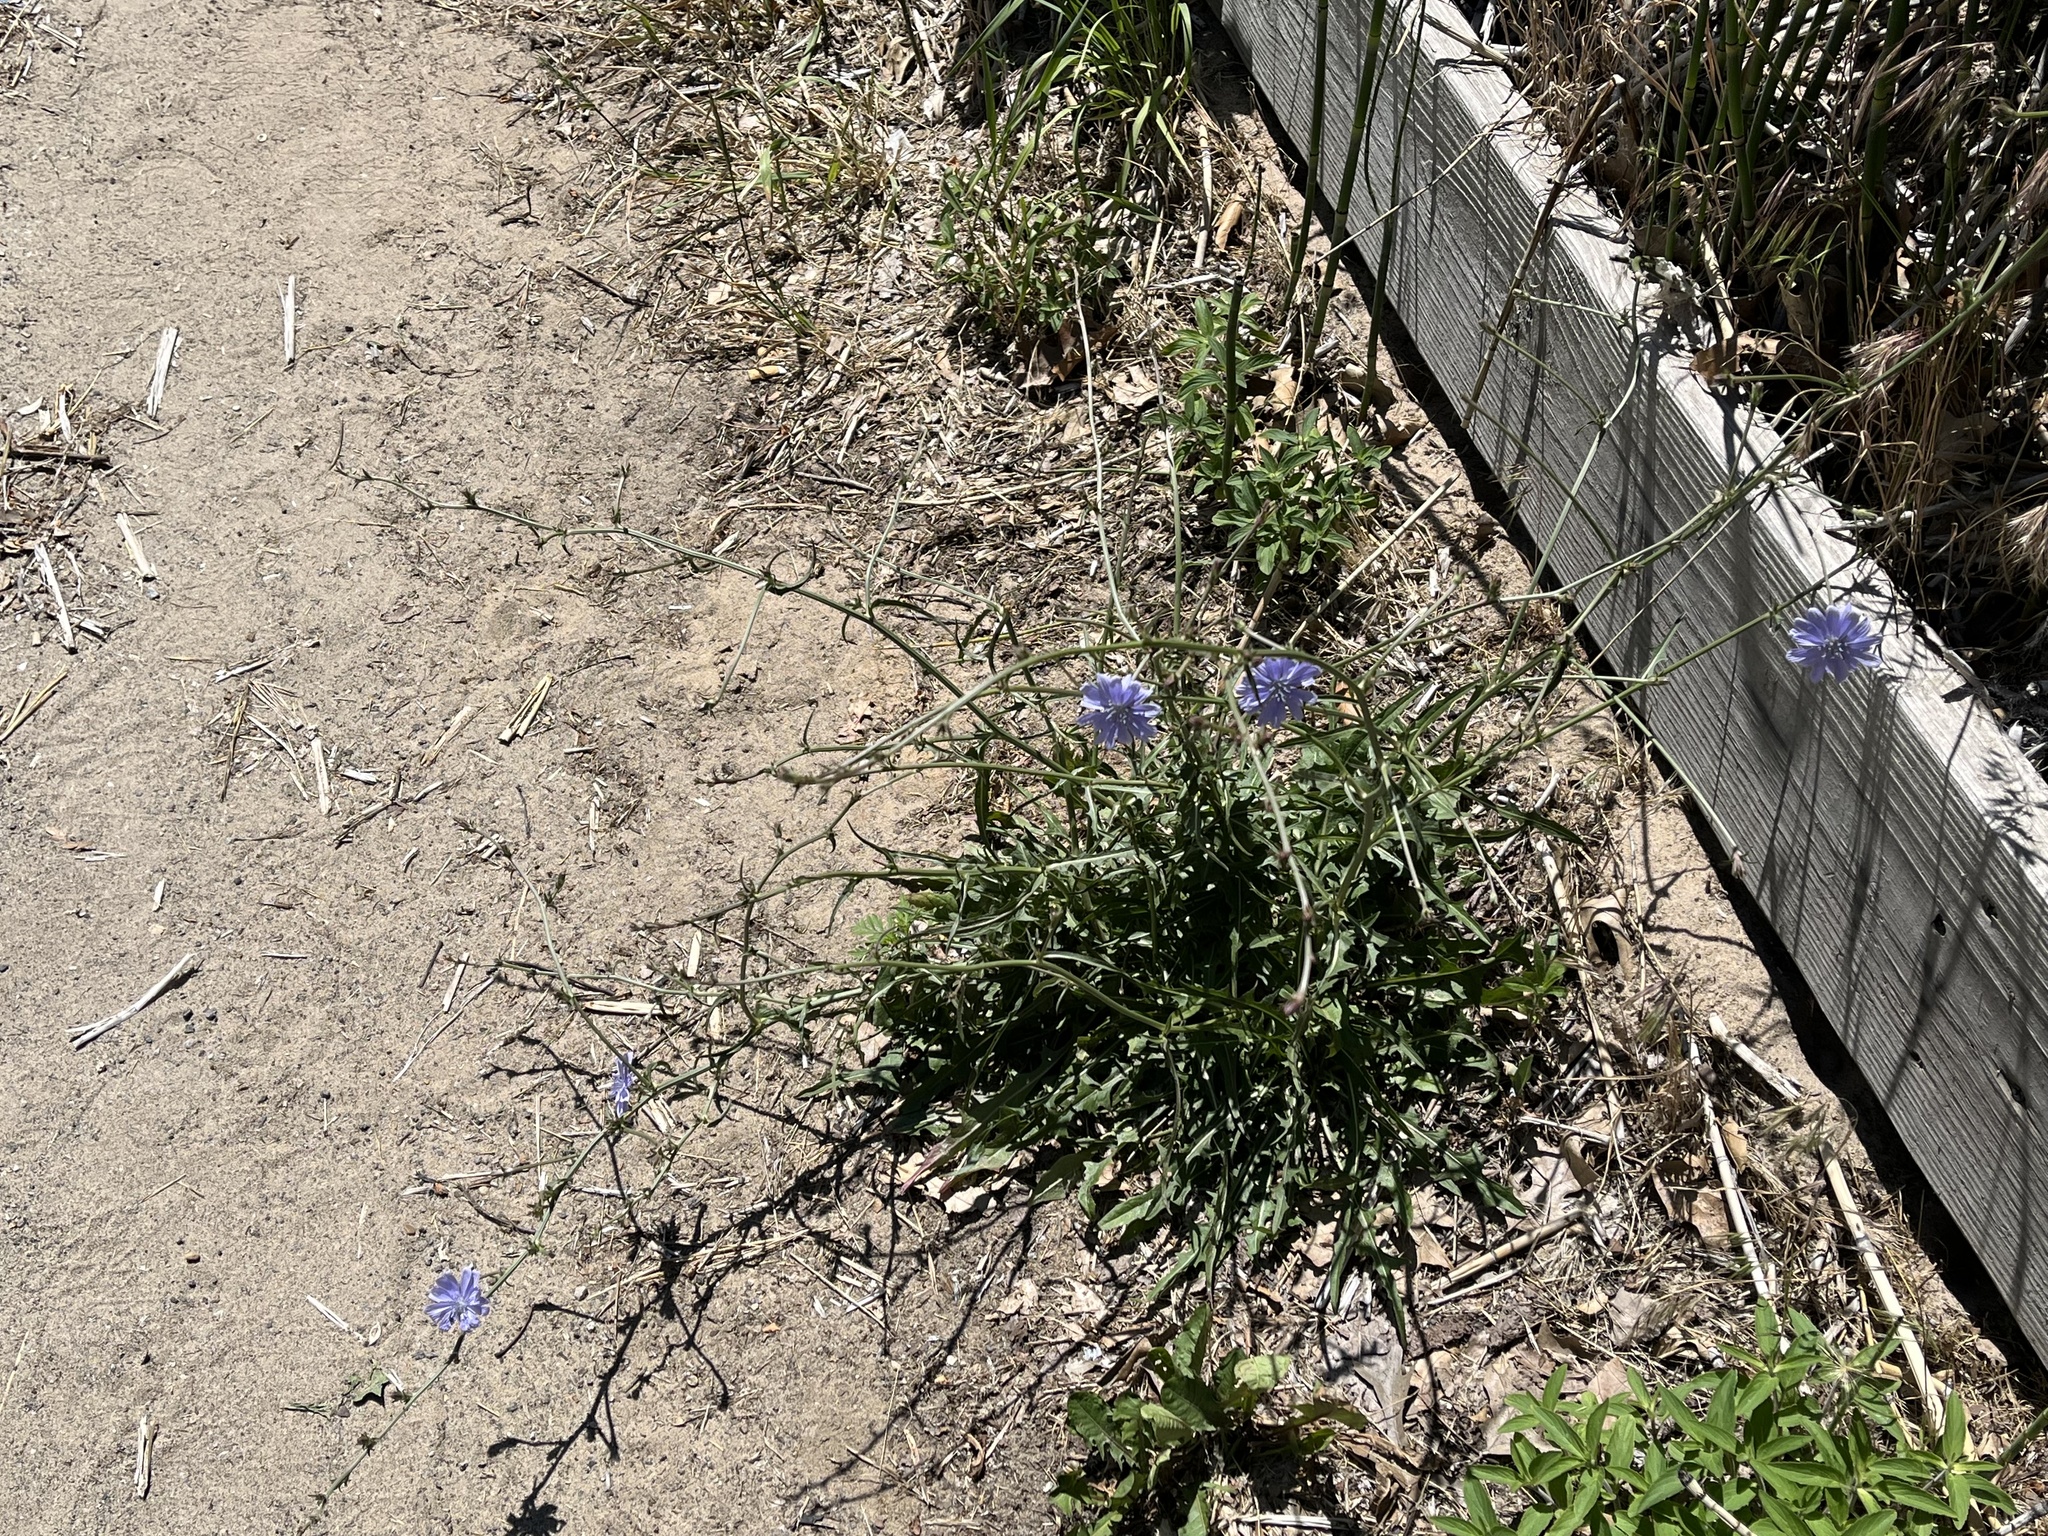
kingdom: Plantae
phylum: Tracheophyta
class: Magnoliopsida
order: Asterales
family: Asteraceae
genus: Cichorium
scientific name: Cichorium intybus
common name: Chicory
